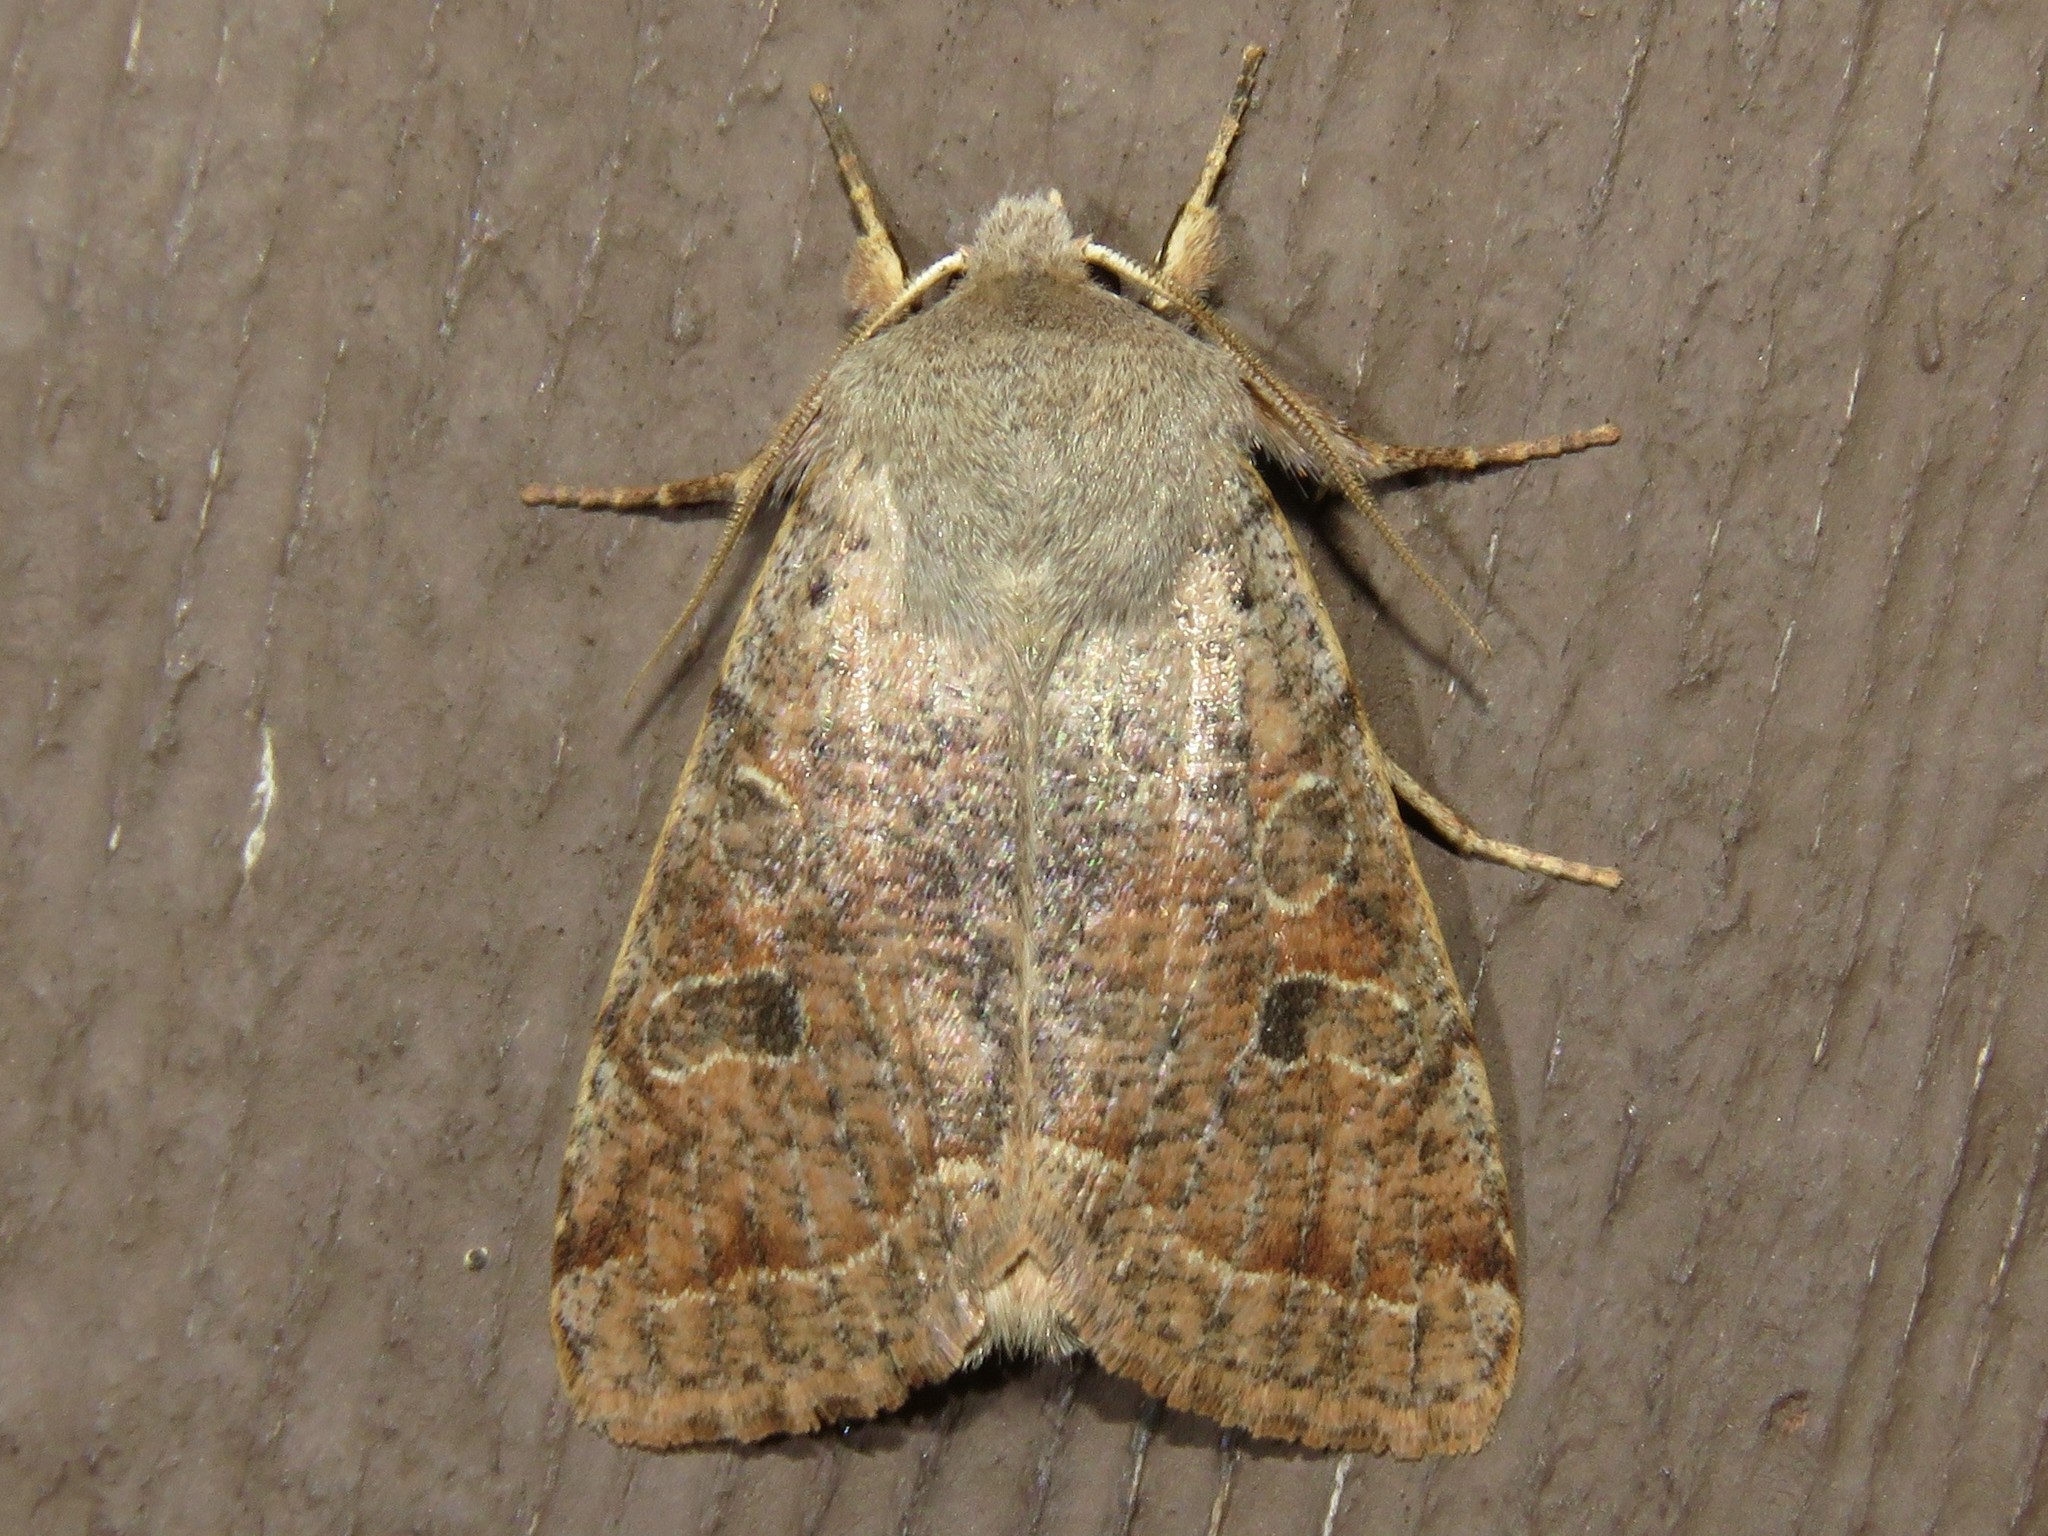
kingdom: Animalia
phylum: Arthropoda
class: Insecta
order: Lepidoptera
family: Noctuidae
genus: Orthosia
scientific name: Orthosia hibisci
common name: Green fruitworm
